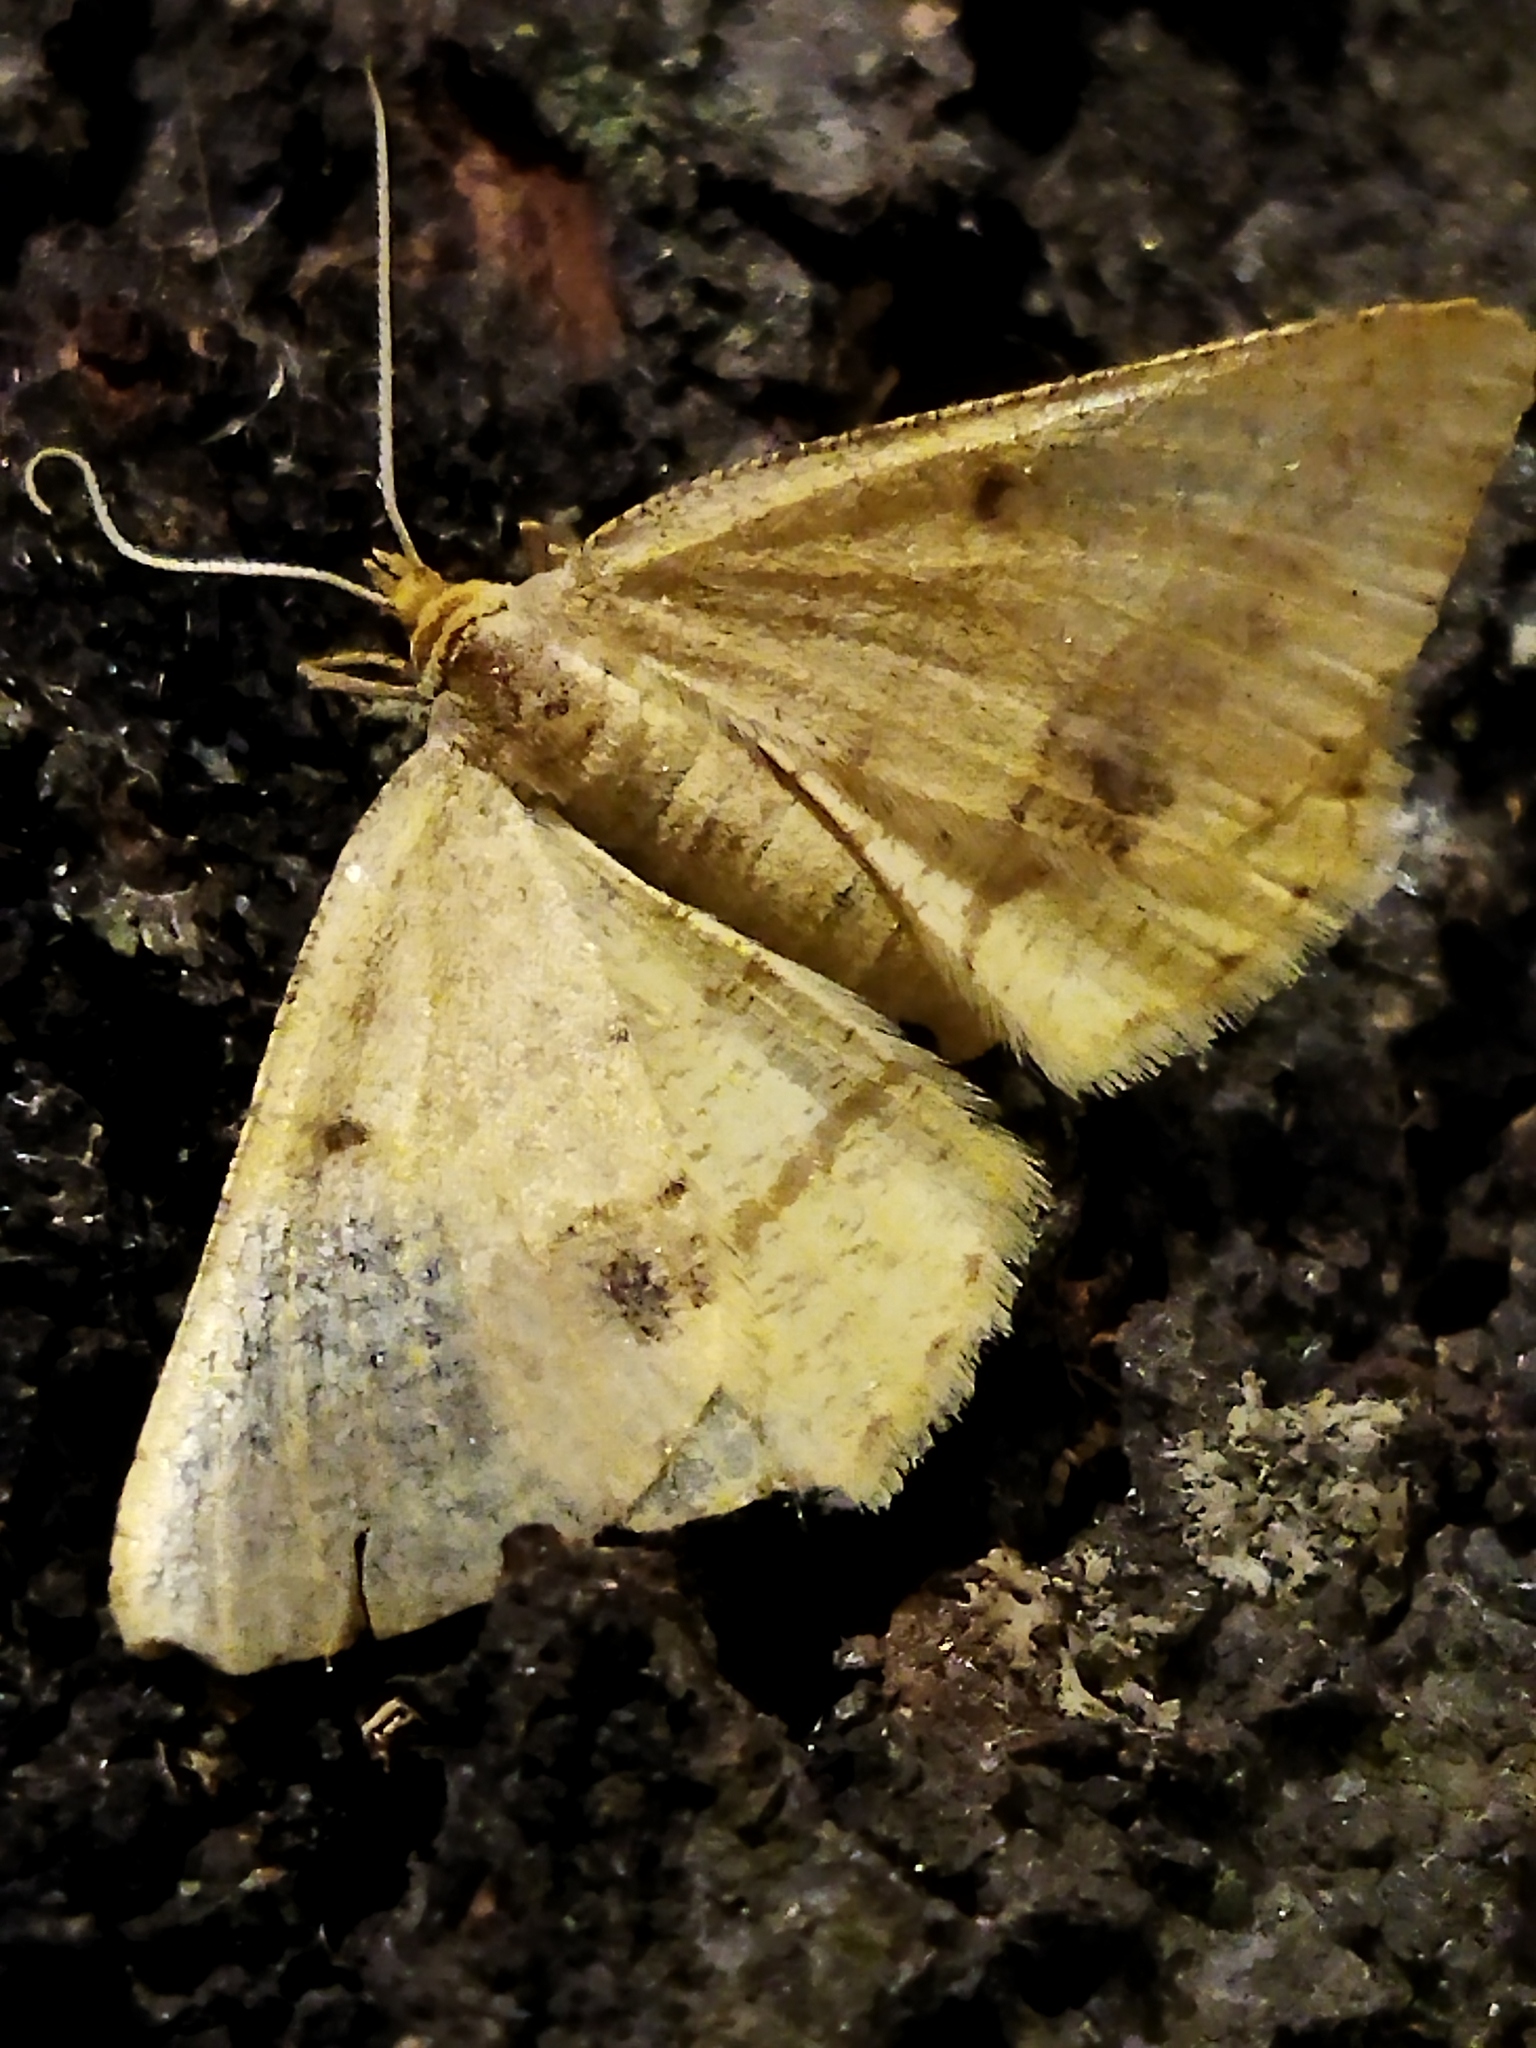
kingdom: Animalia
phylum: Arthropoda
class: Insecta
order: Lepidoptera
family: Geometridae
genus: Tephrina
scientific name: Tephrina arenacearia
